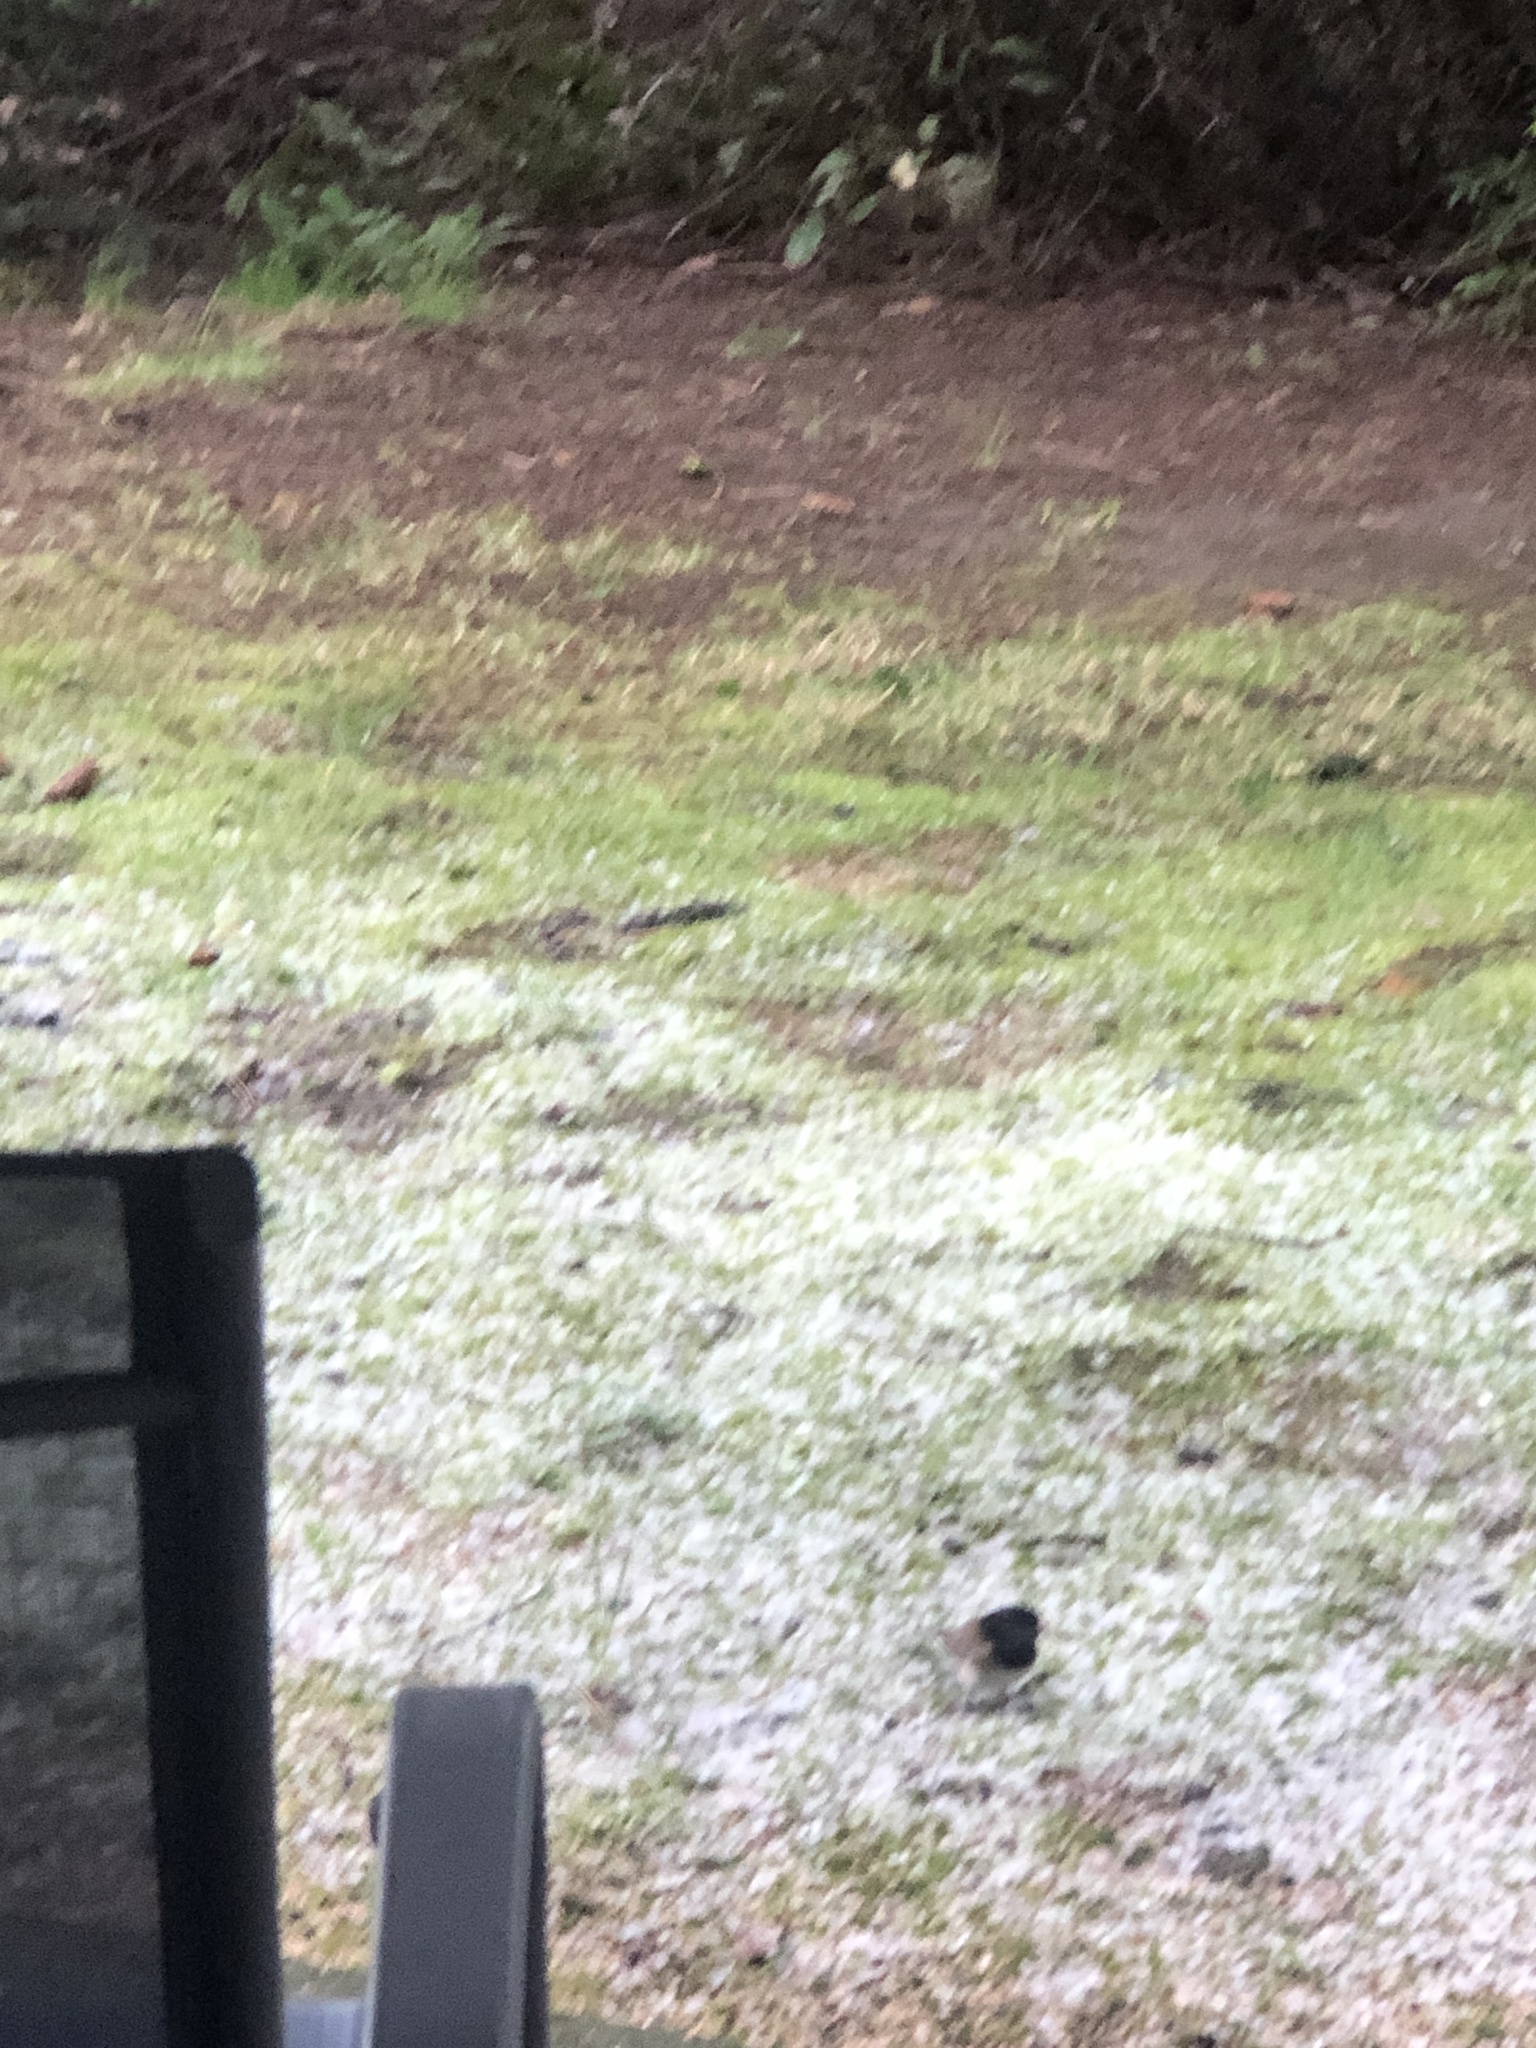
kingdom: Animalia
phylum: Chordata
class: Aves
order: Passeriformes
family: Passerellidae
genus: Junco
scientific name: Junco hyemalis
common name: Dark-eyed junco
